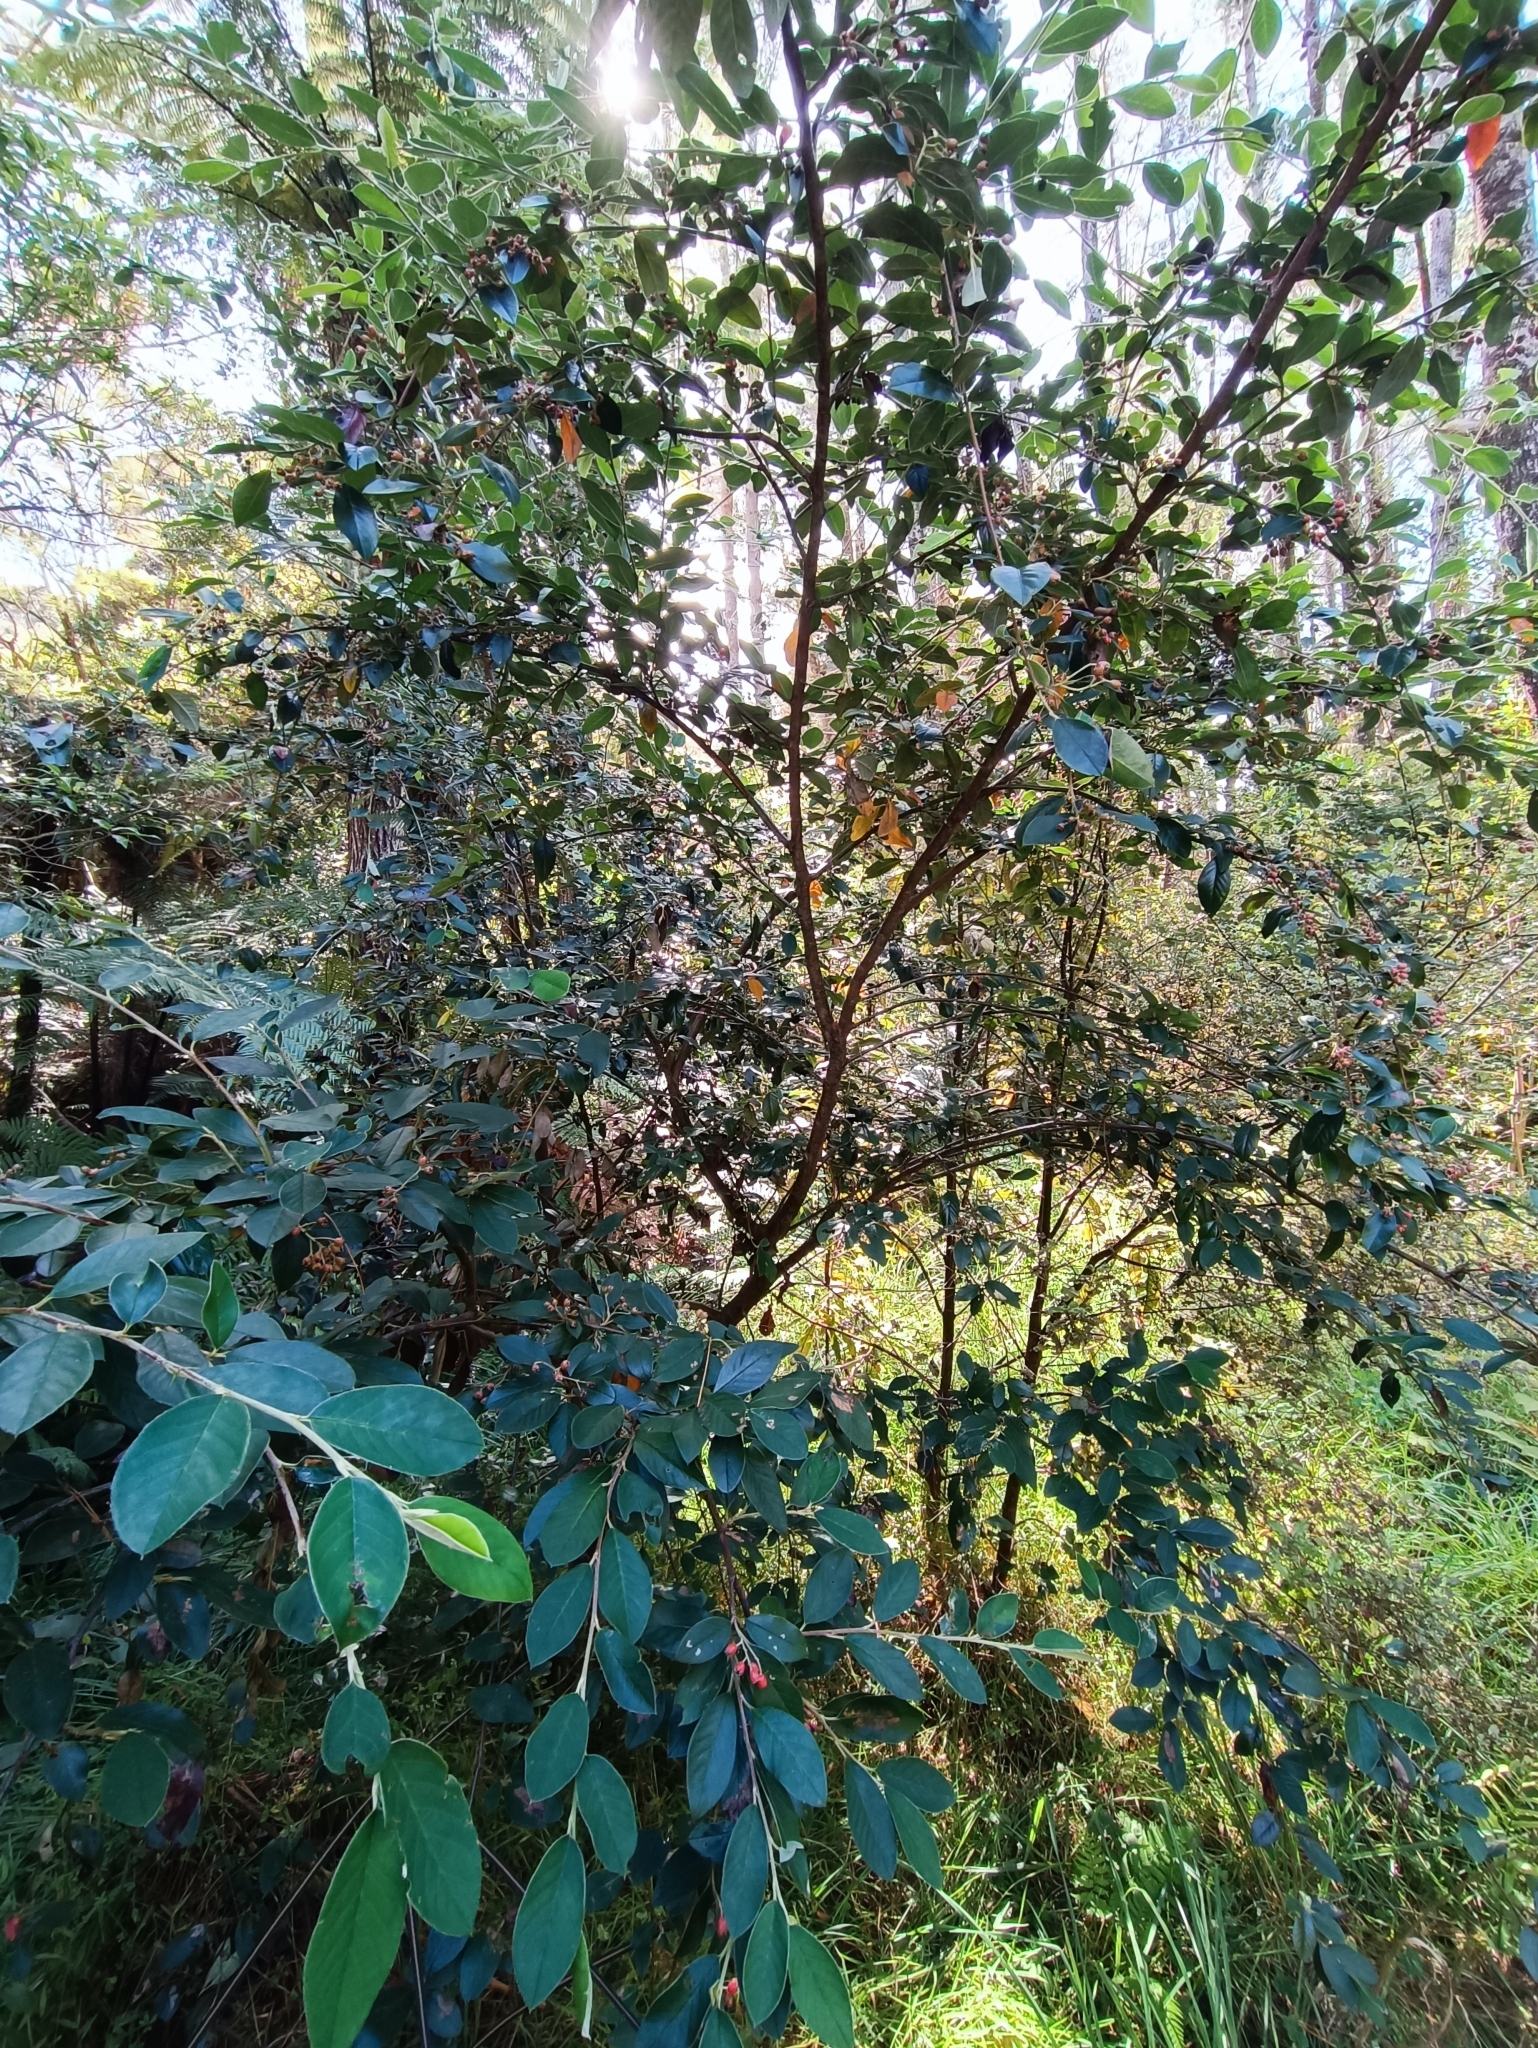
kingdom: Plantae
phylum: Tracheophyta
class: Magnoliopsida
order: Rosales
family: Rosaceae
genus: Cotoneaster
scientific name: Cotoneaster glaucophyllus
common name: Glaucous cotoneaster
